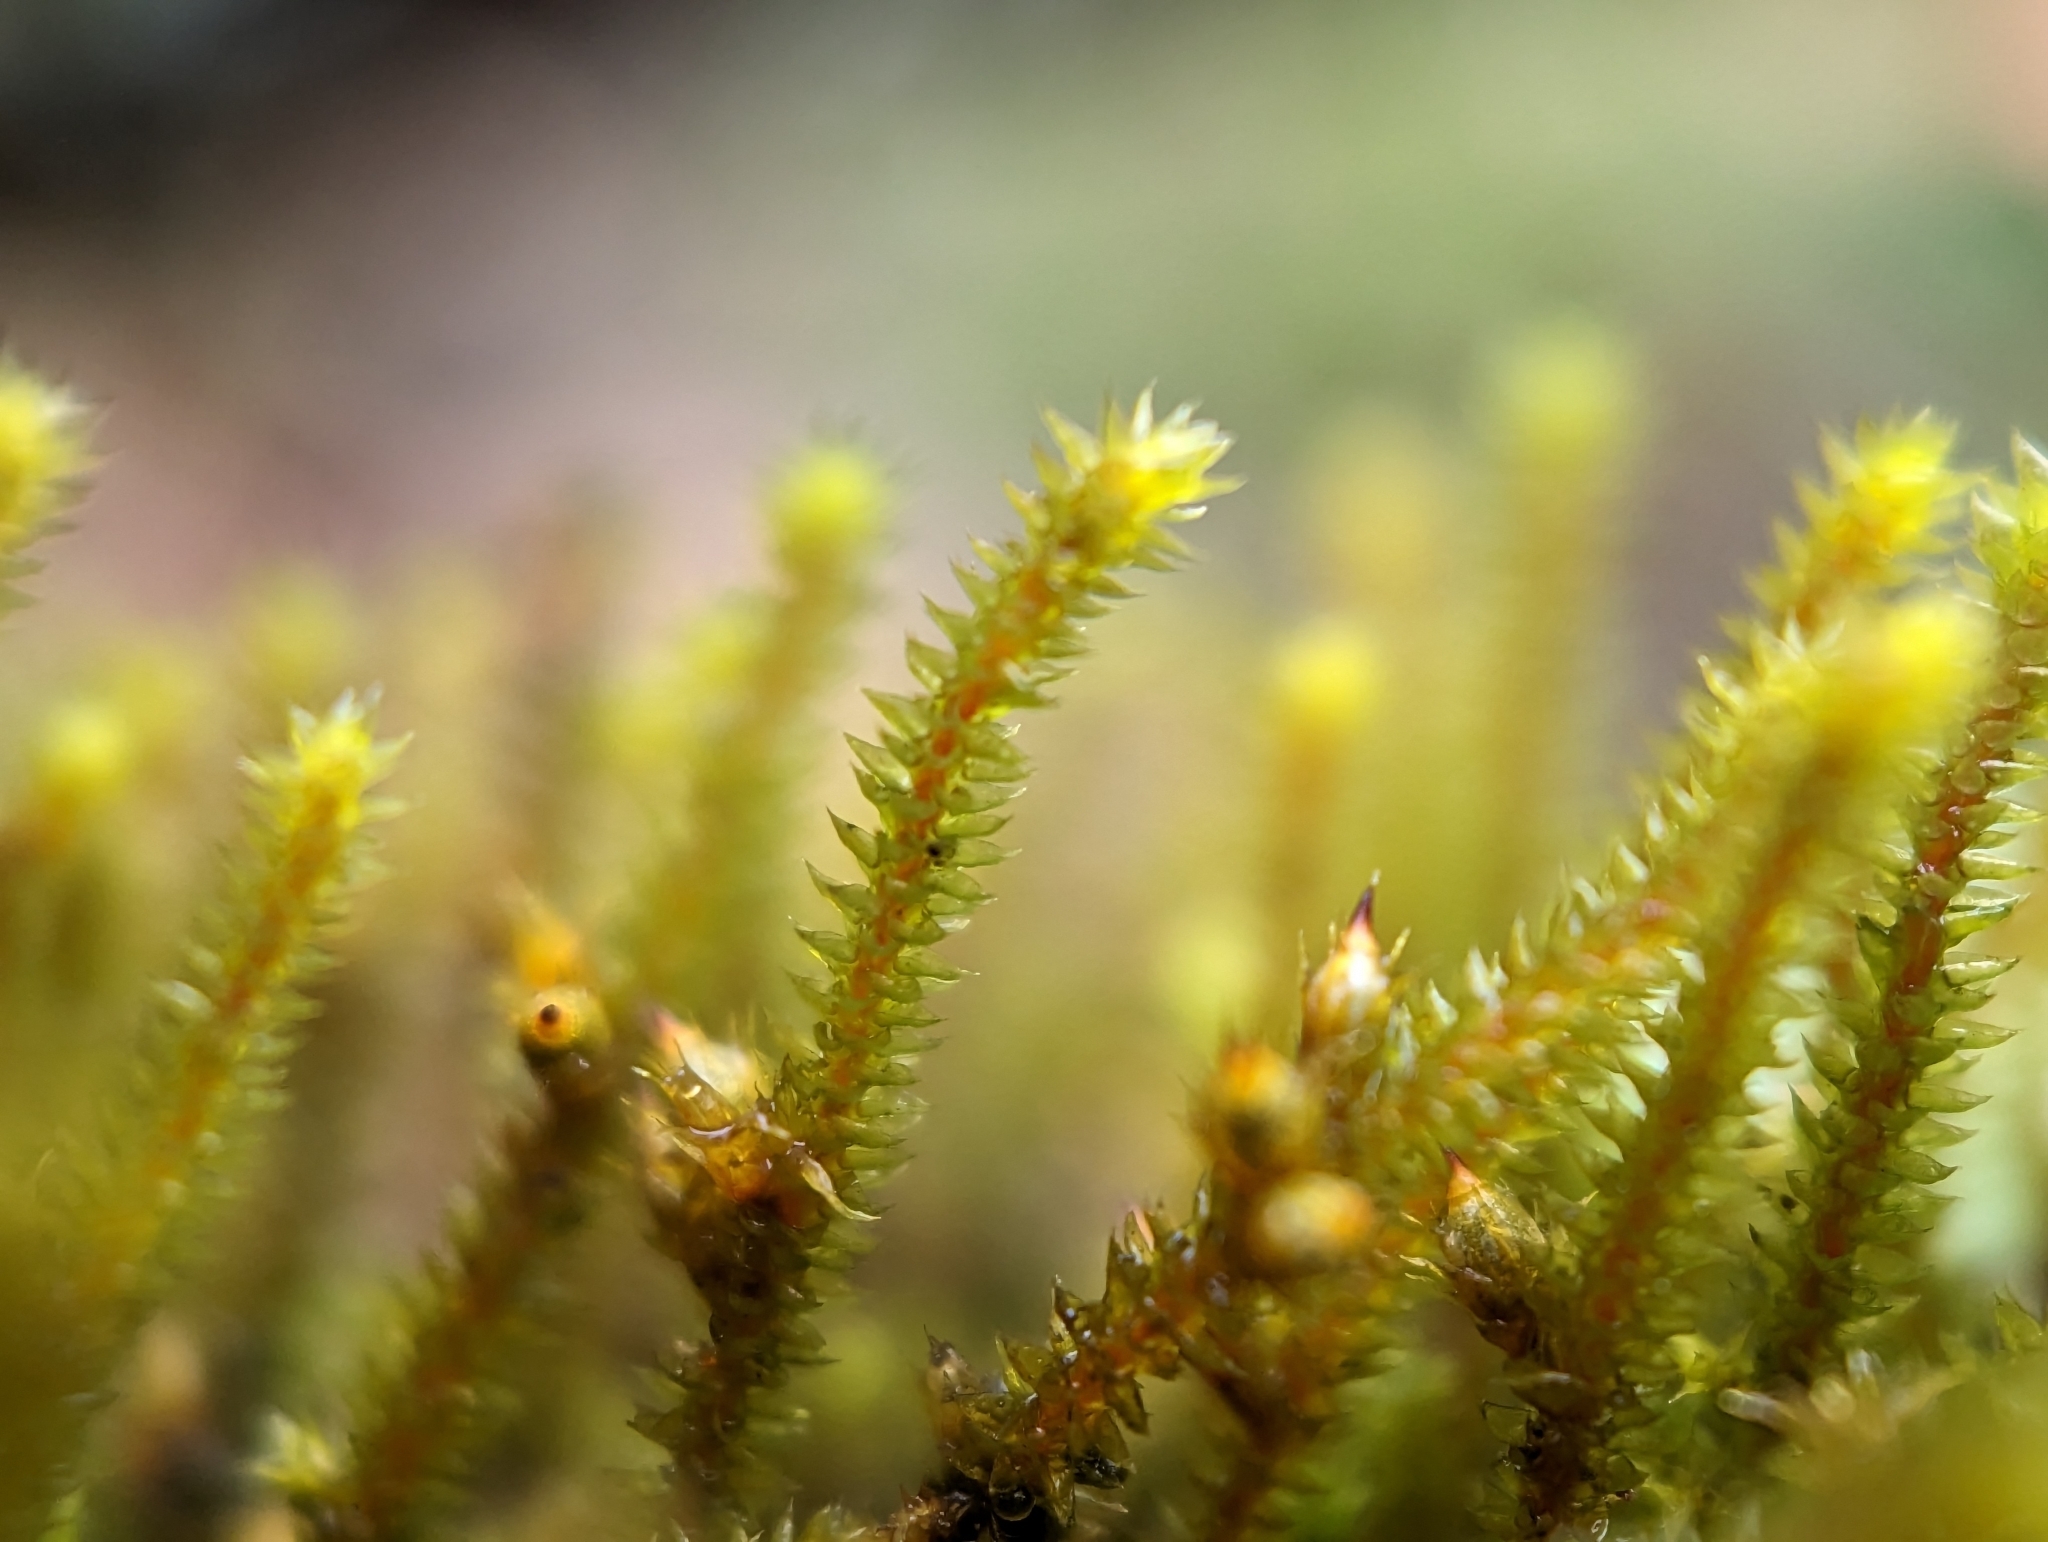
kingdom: Plantae
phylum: Bryophyta
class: Bryopsida
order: Hypnales
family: Cryphaeaceae
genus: Cryphaea
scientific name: Cryphaea glomerata
